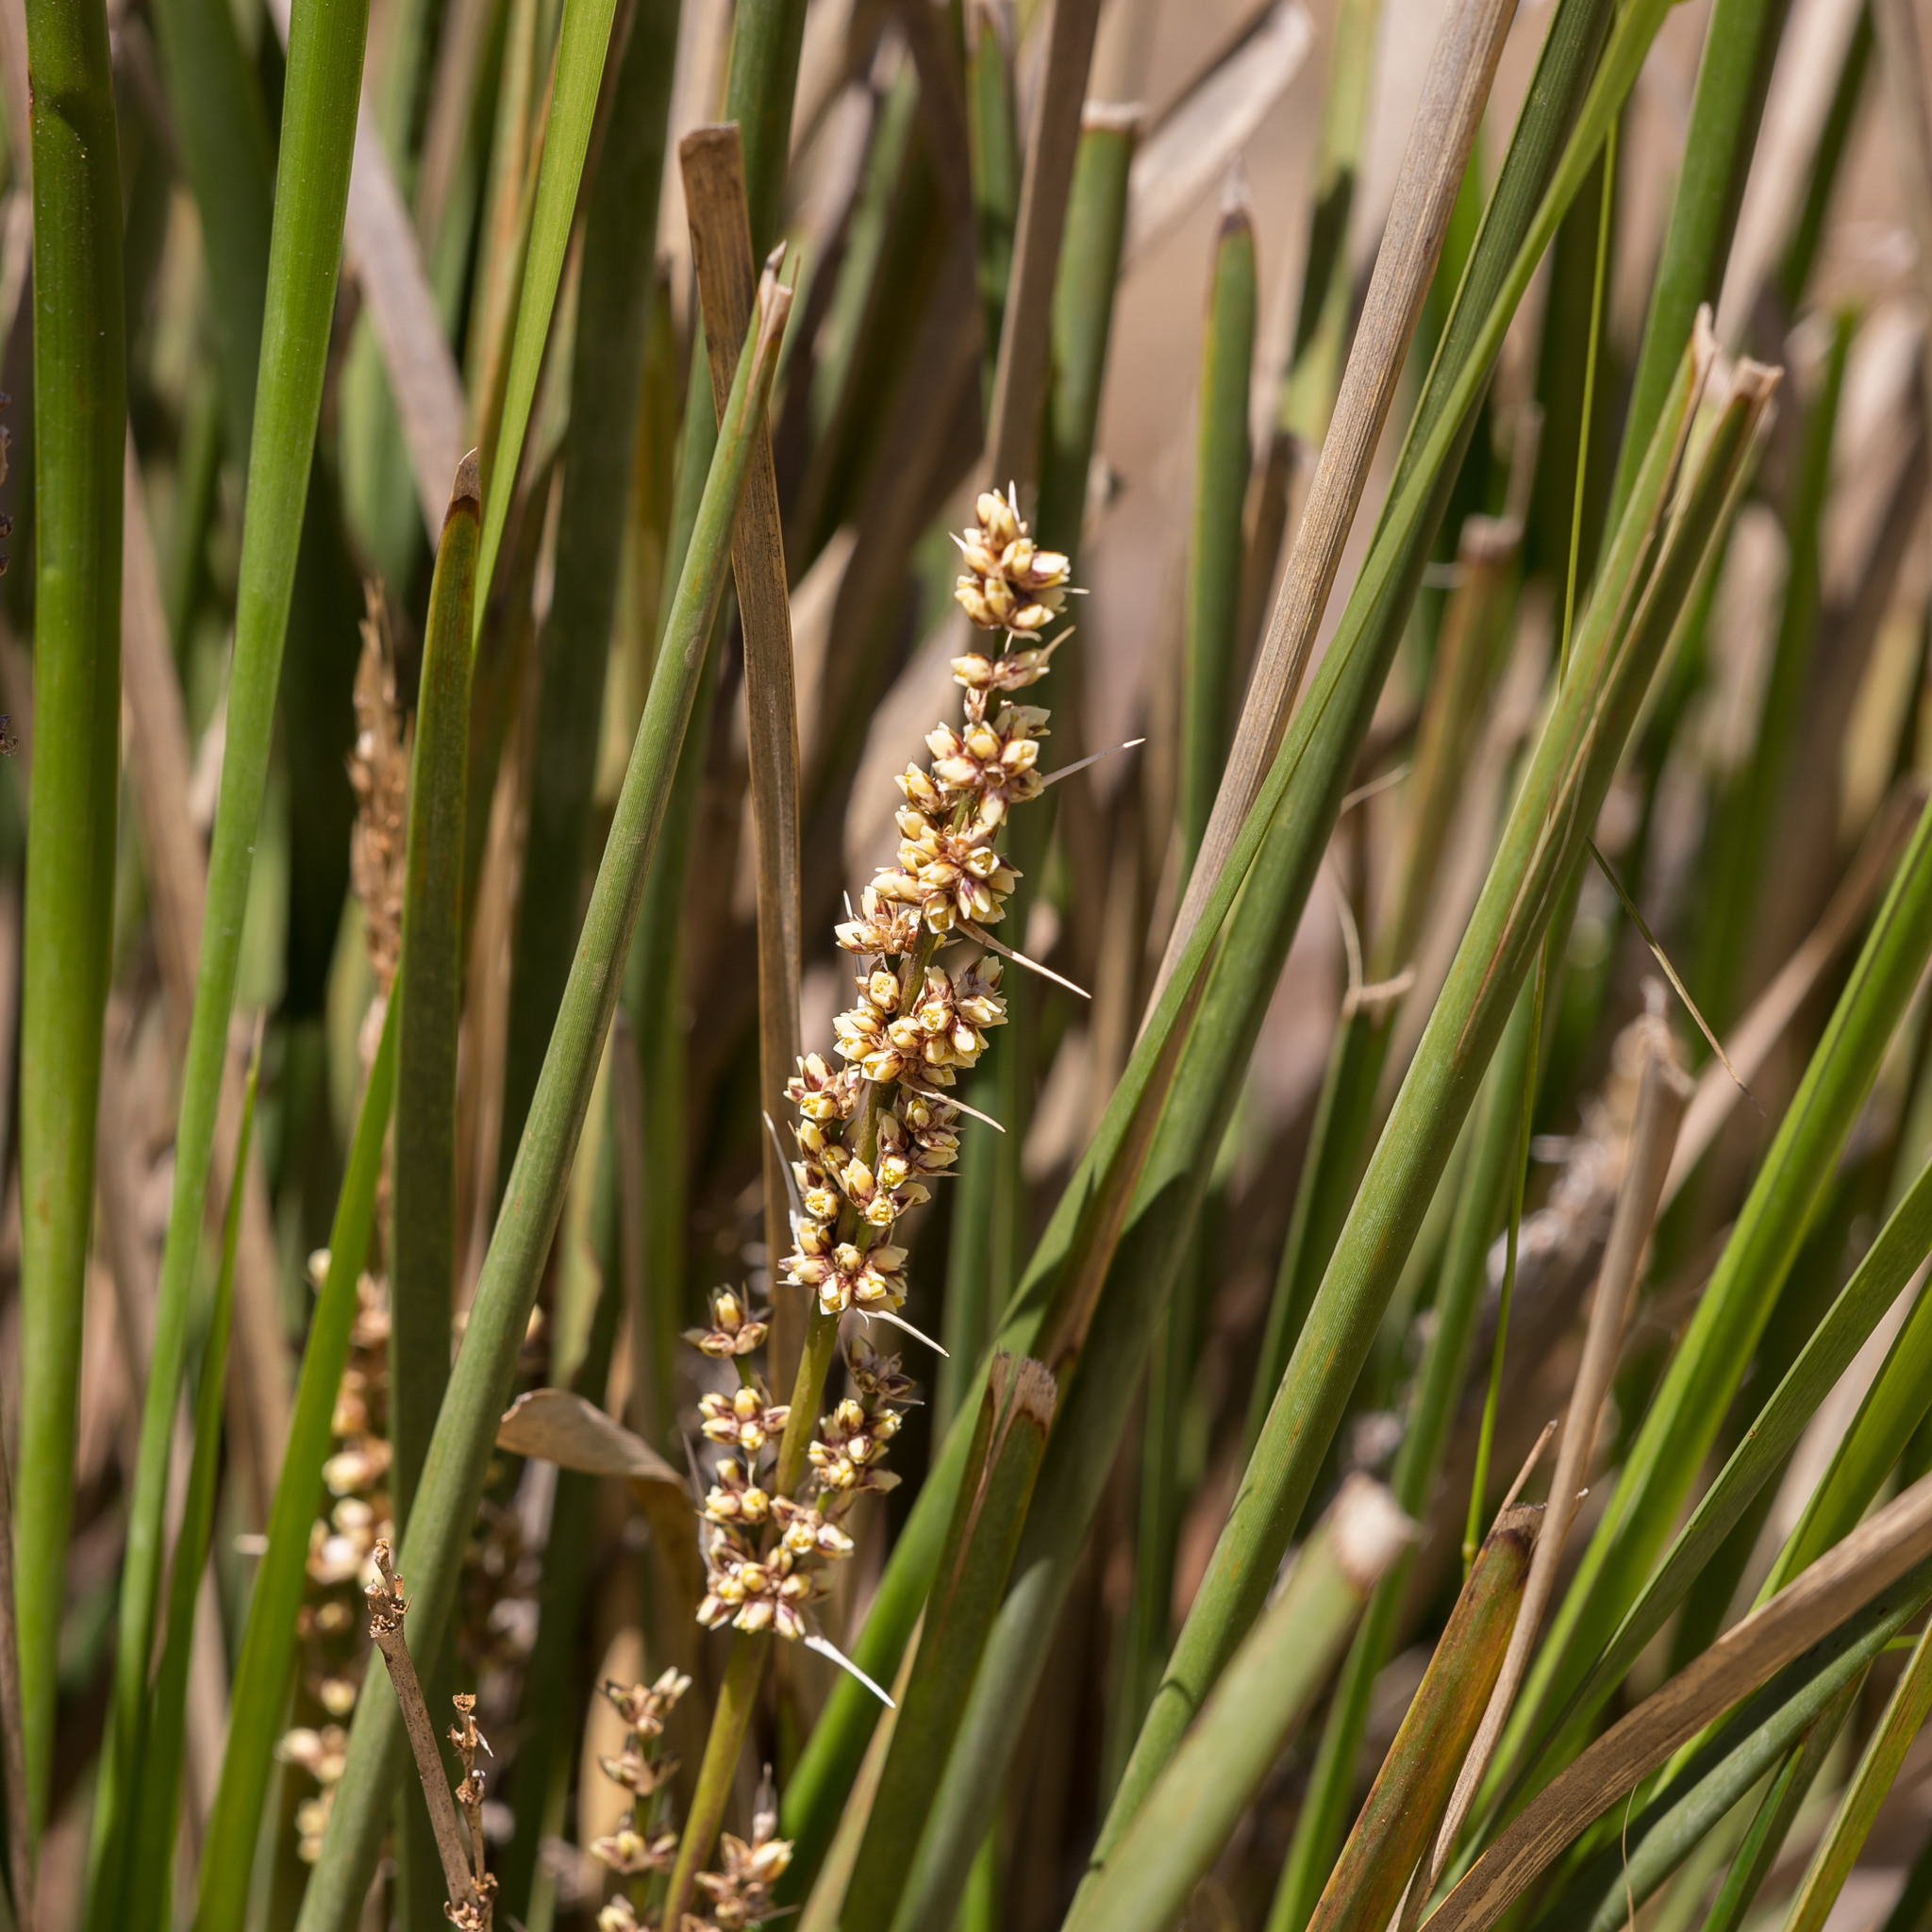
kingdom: Plantae
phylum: Tracheophyta
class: Liliopsida
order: Asparagales
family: Asparagaceae
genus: Lomandra
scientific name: Lomandra longifolia
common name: Longleaf mat-rush
